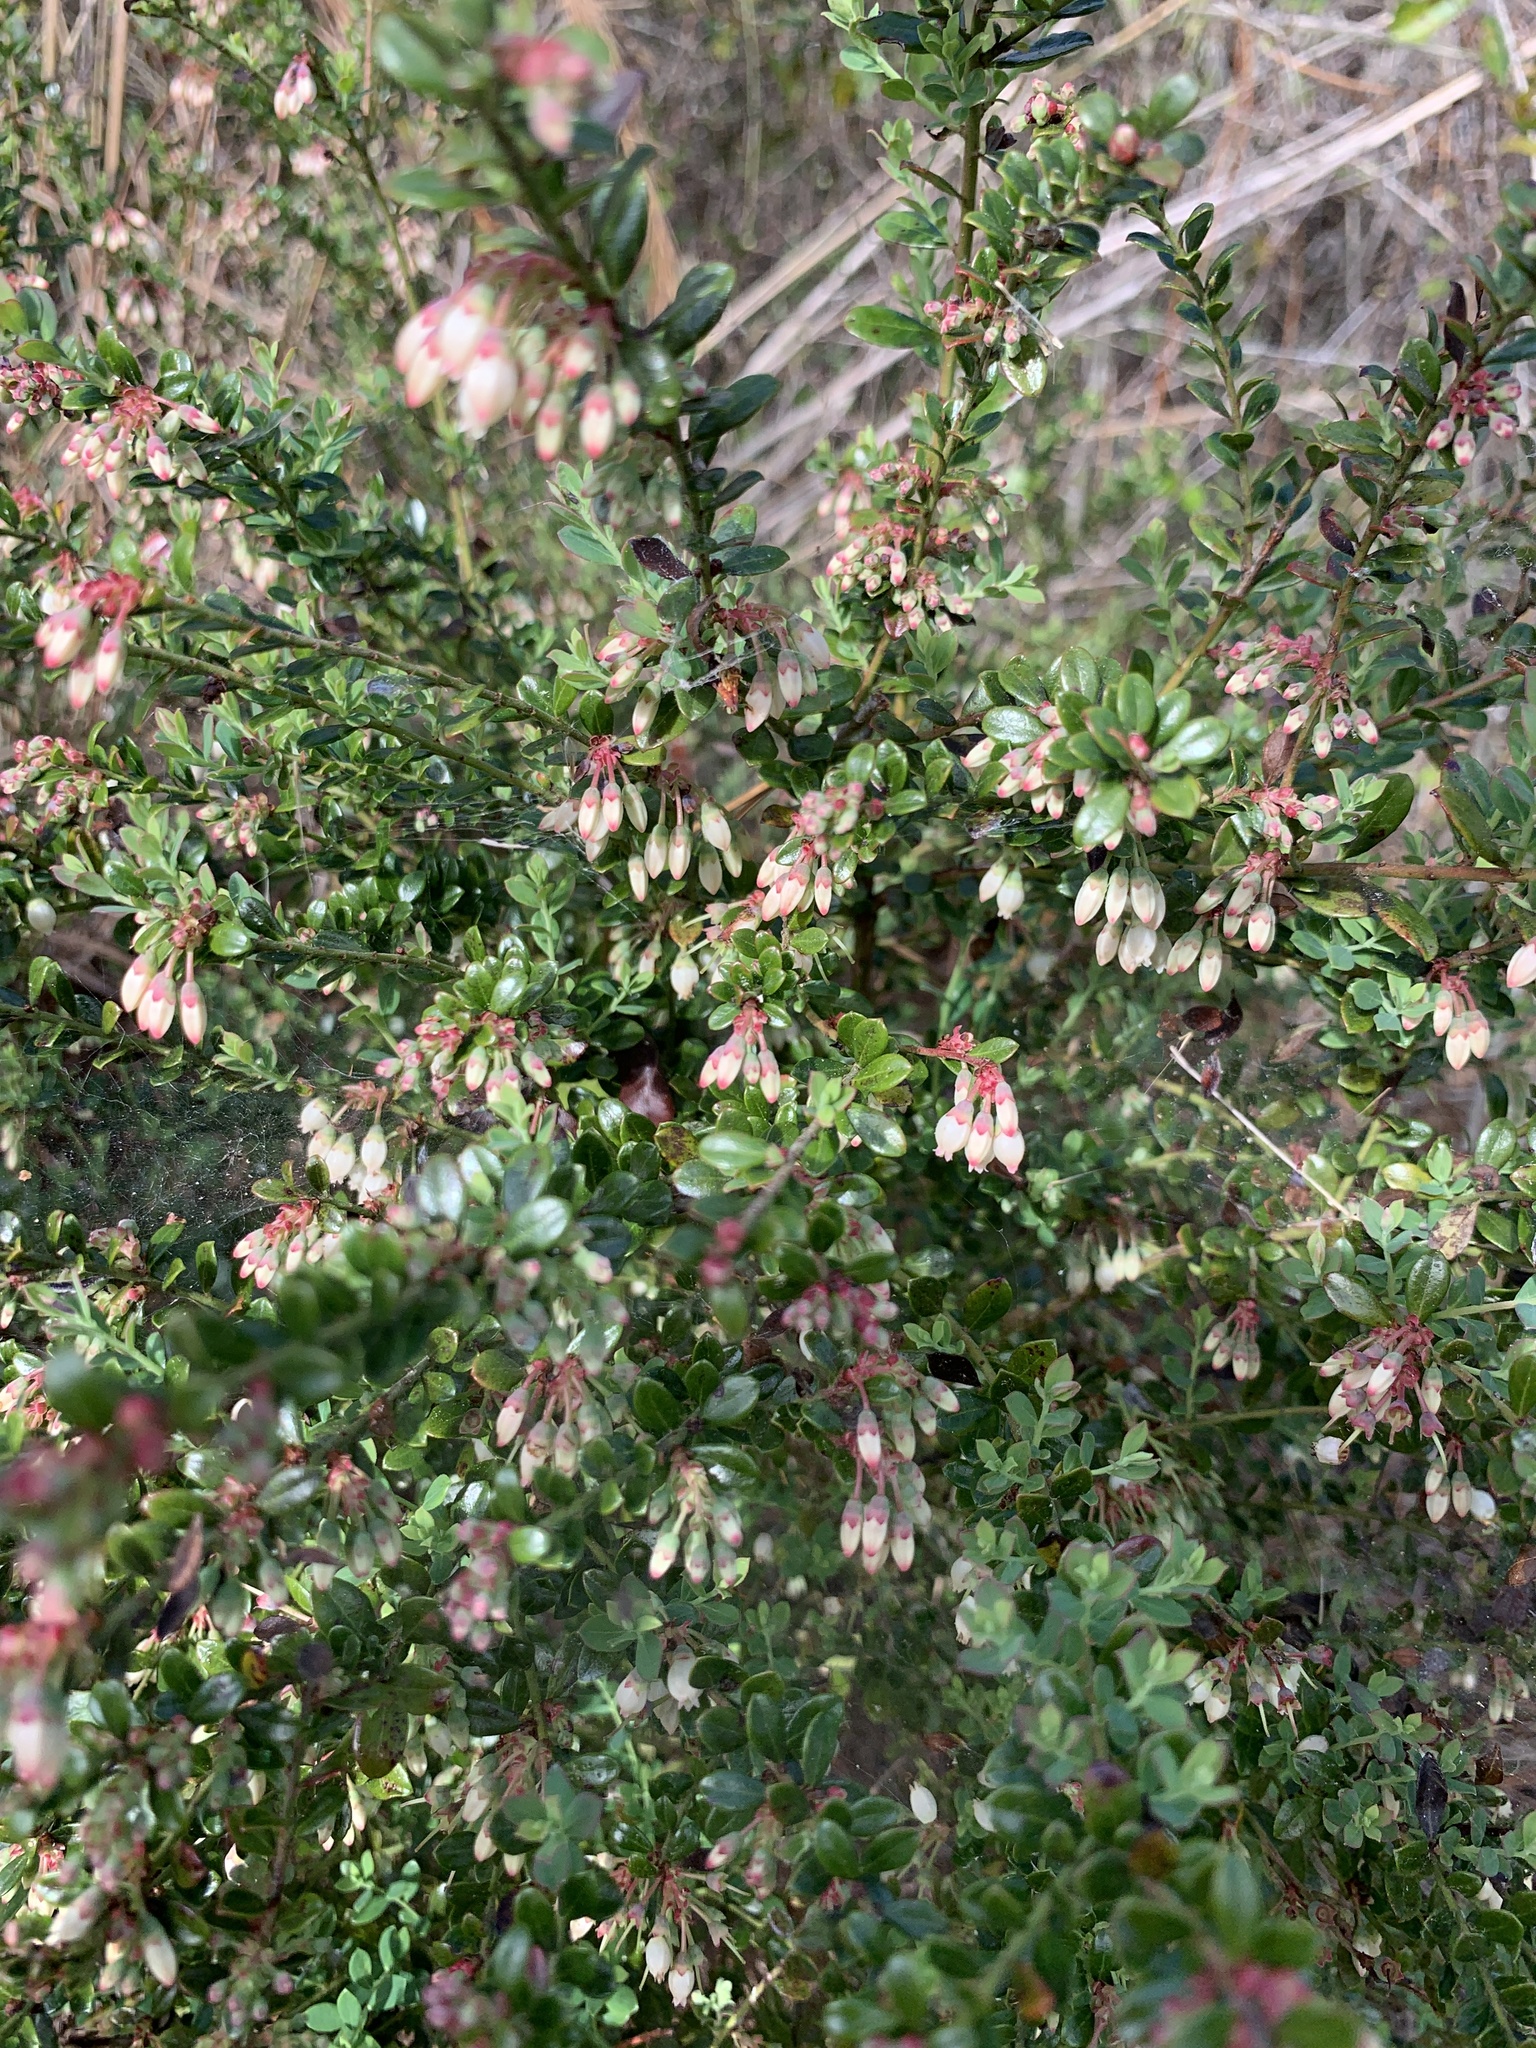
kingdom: Plantae
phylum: Tracheophyta
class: Magnoliopsida
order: Ericales
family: Ericaceae
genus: Vaccinium
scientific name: Vaccinium myrsinites
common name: Evergreen blueberry
